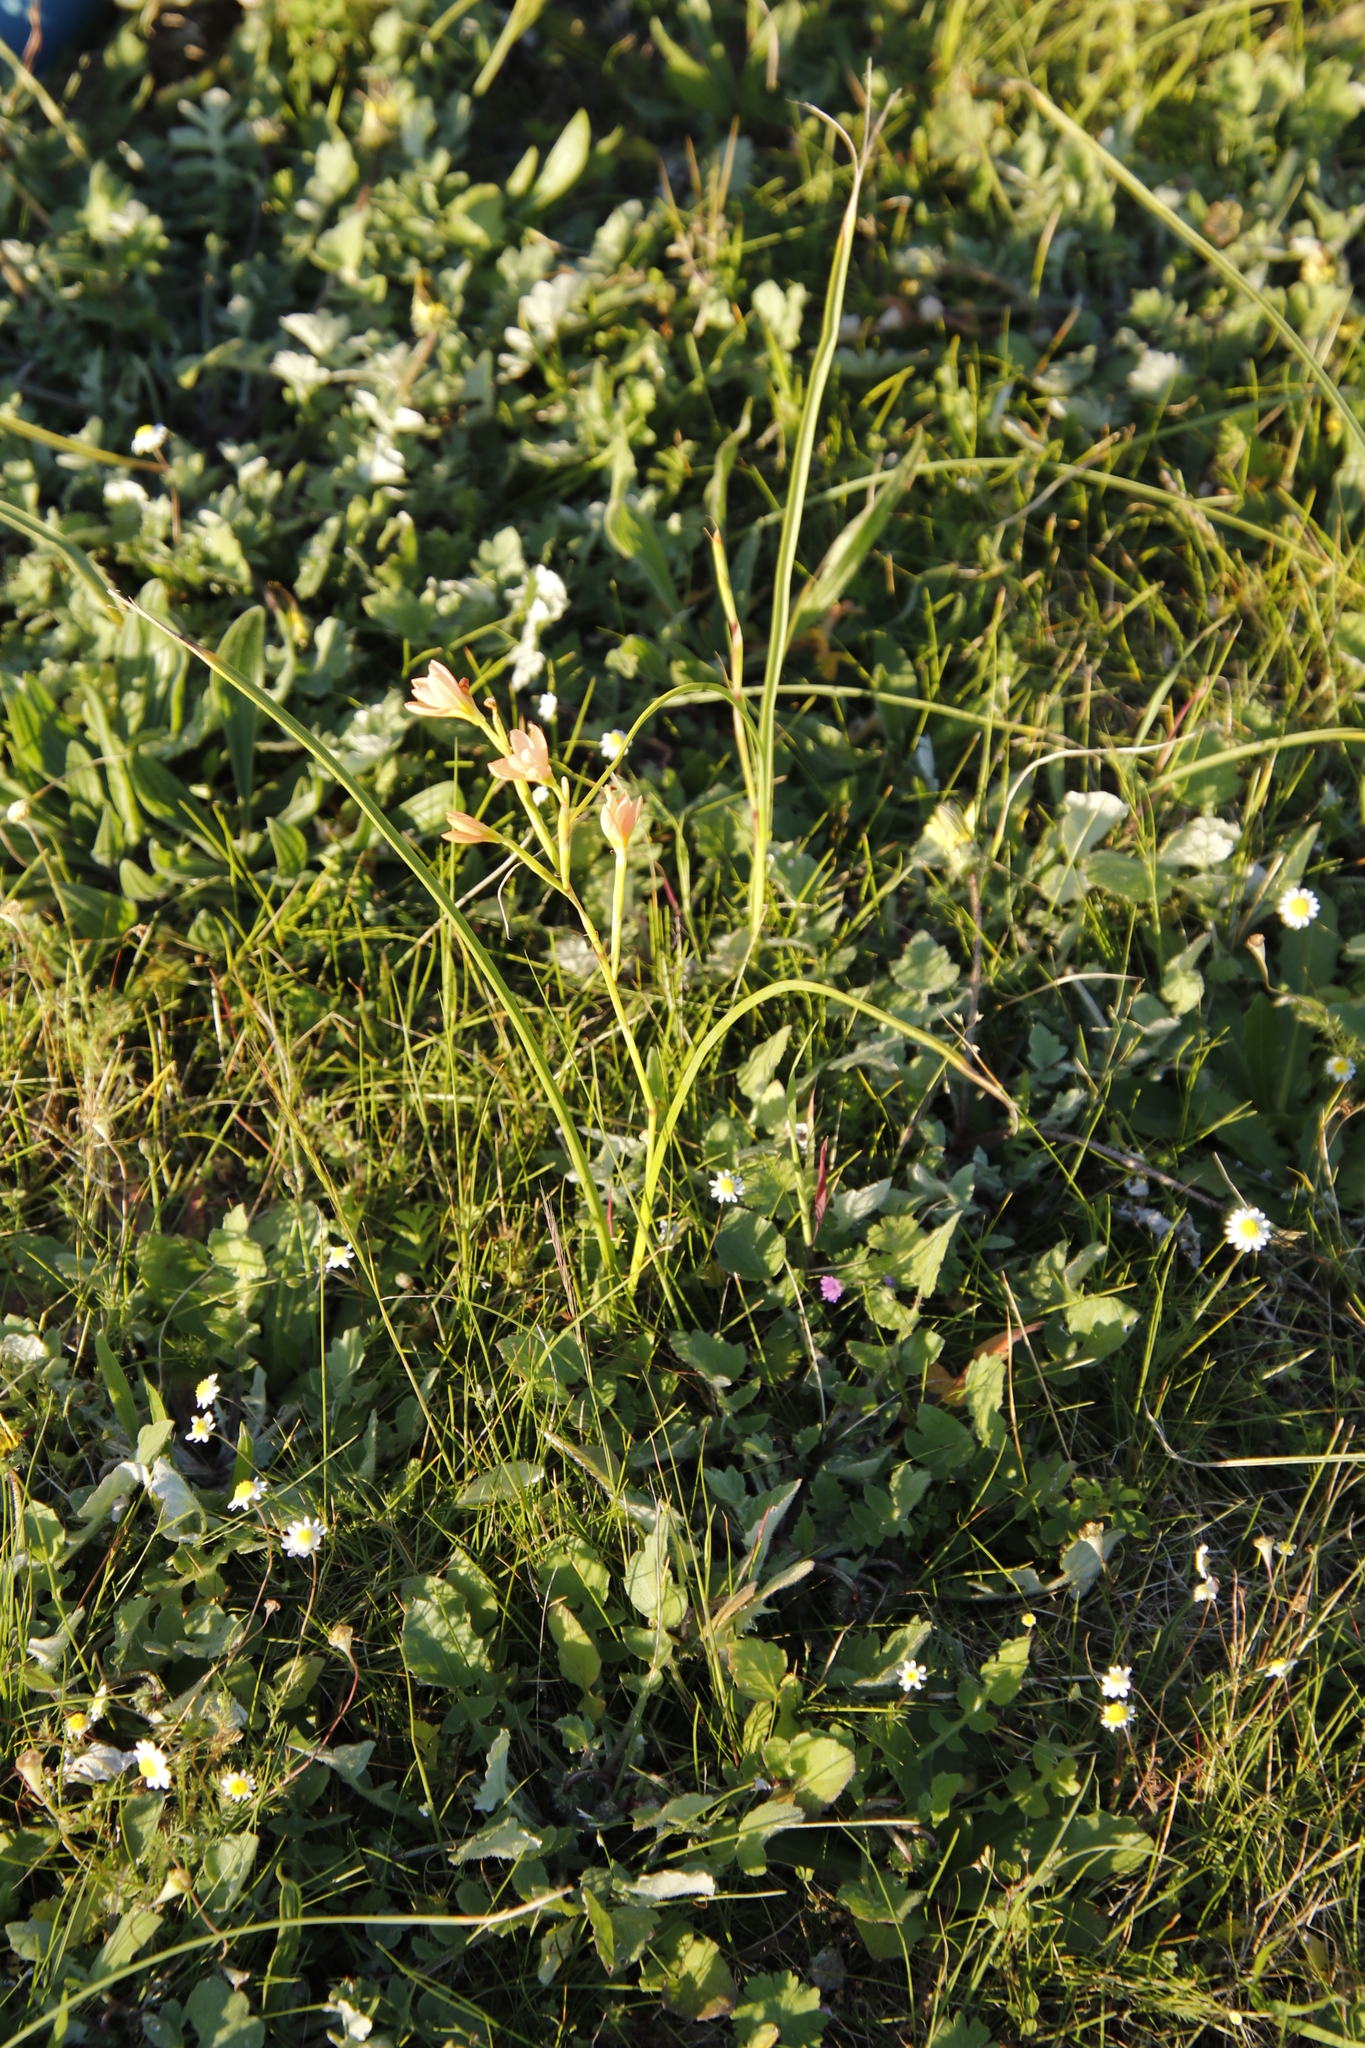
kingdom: Plantae
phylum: Tracheophyta
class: Liliopsida
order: Asparagales
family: Iridaceae
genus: Moraea
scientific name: Moraea miniata
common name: Two-leaf cape-tulip
